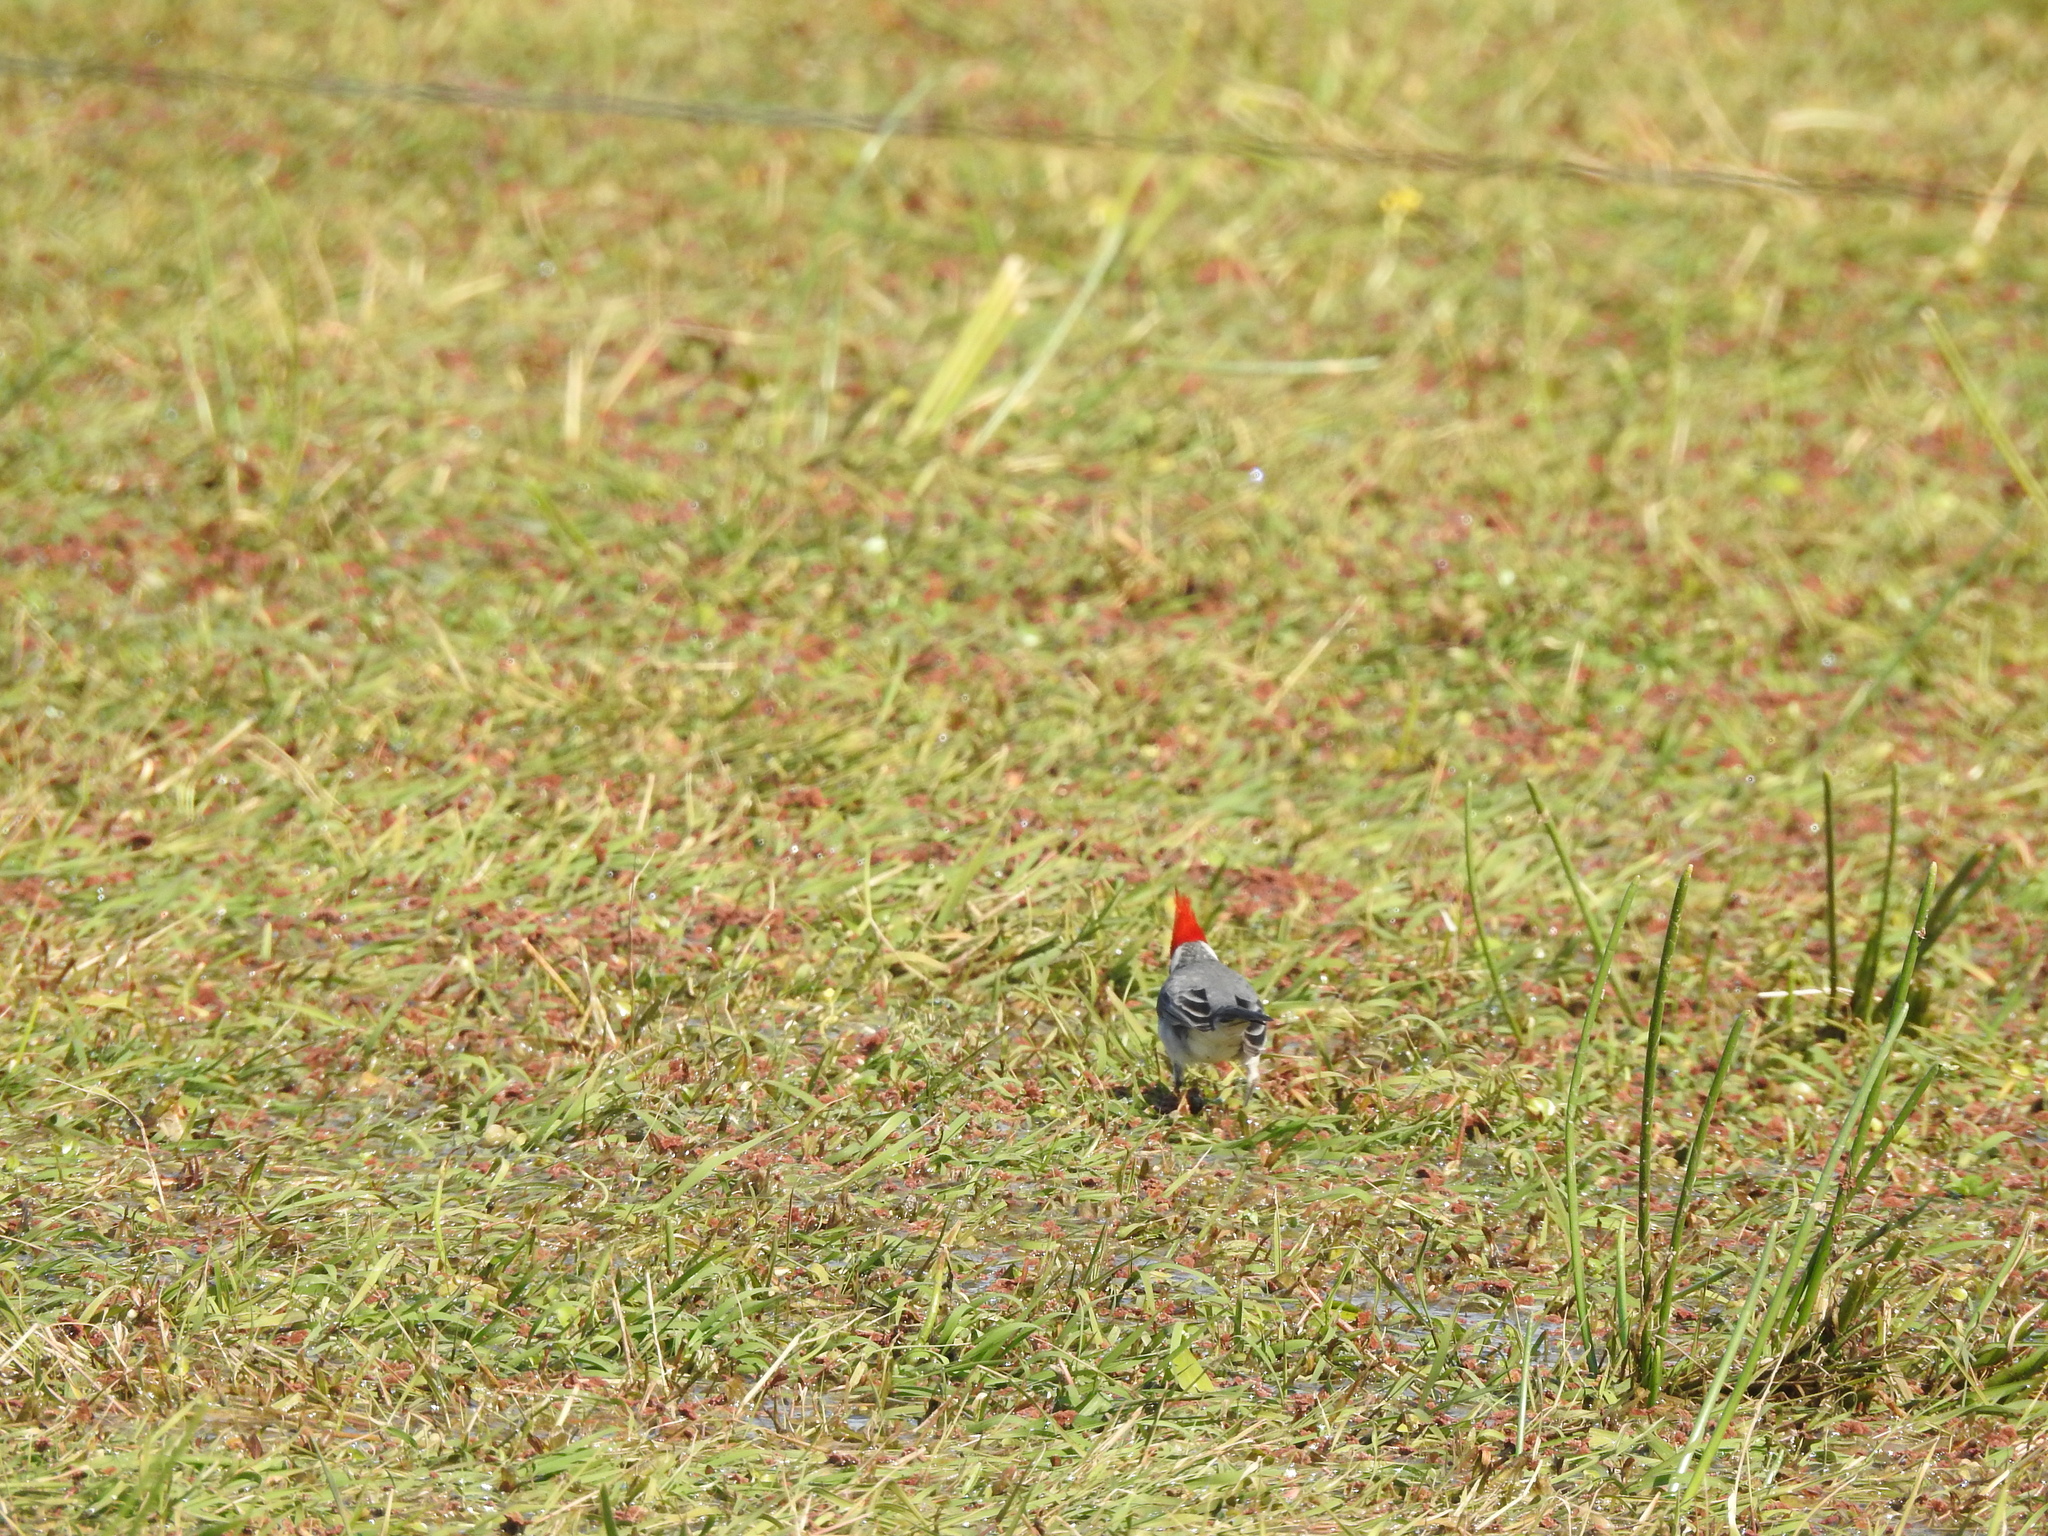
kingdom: Animalia
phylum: Chordata
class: Aves
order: Passeriformes
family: Thraupidae
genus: Paroaria
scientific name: Paroaria coronata
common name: Red-crested cardinal
